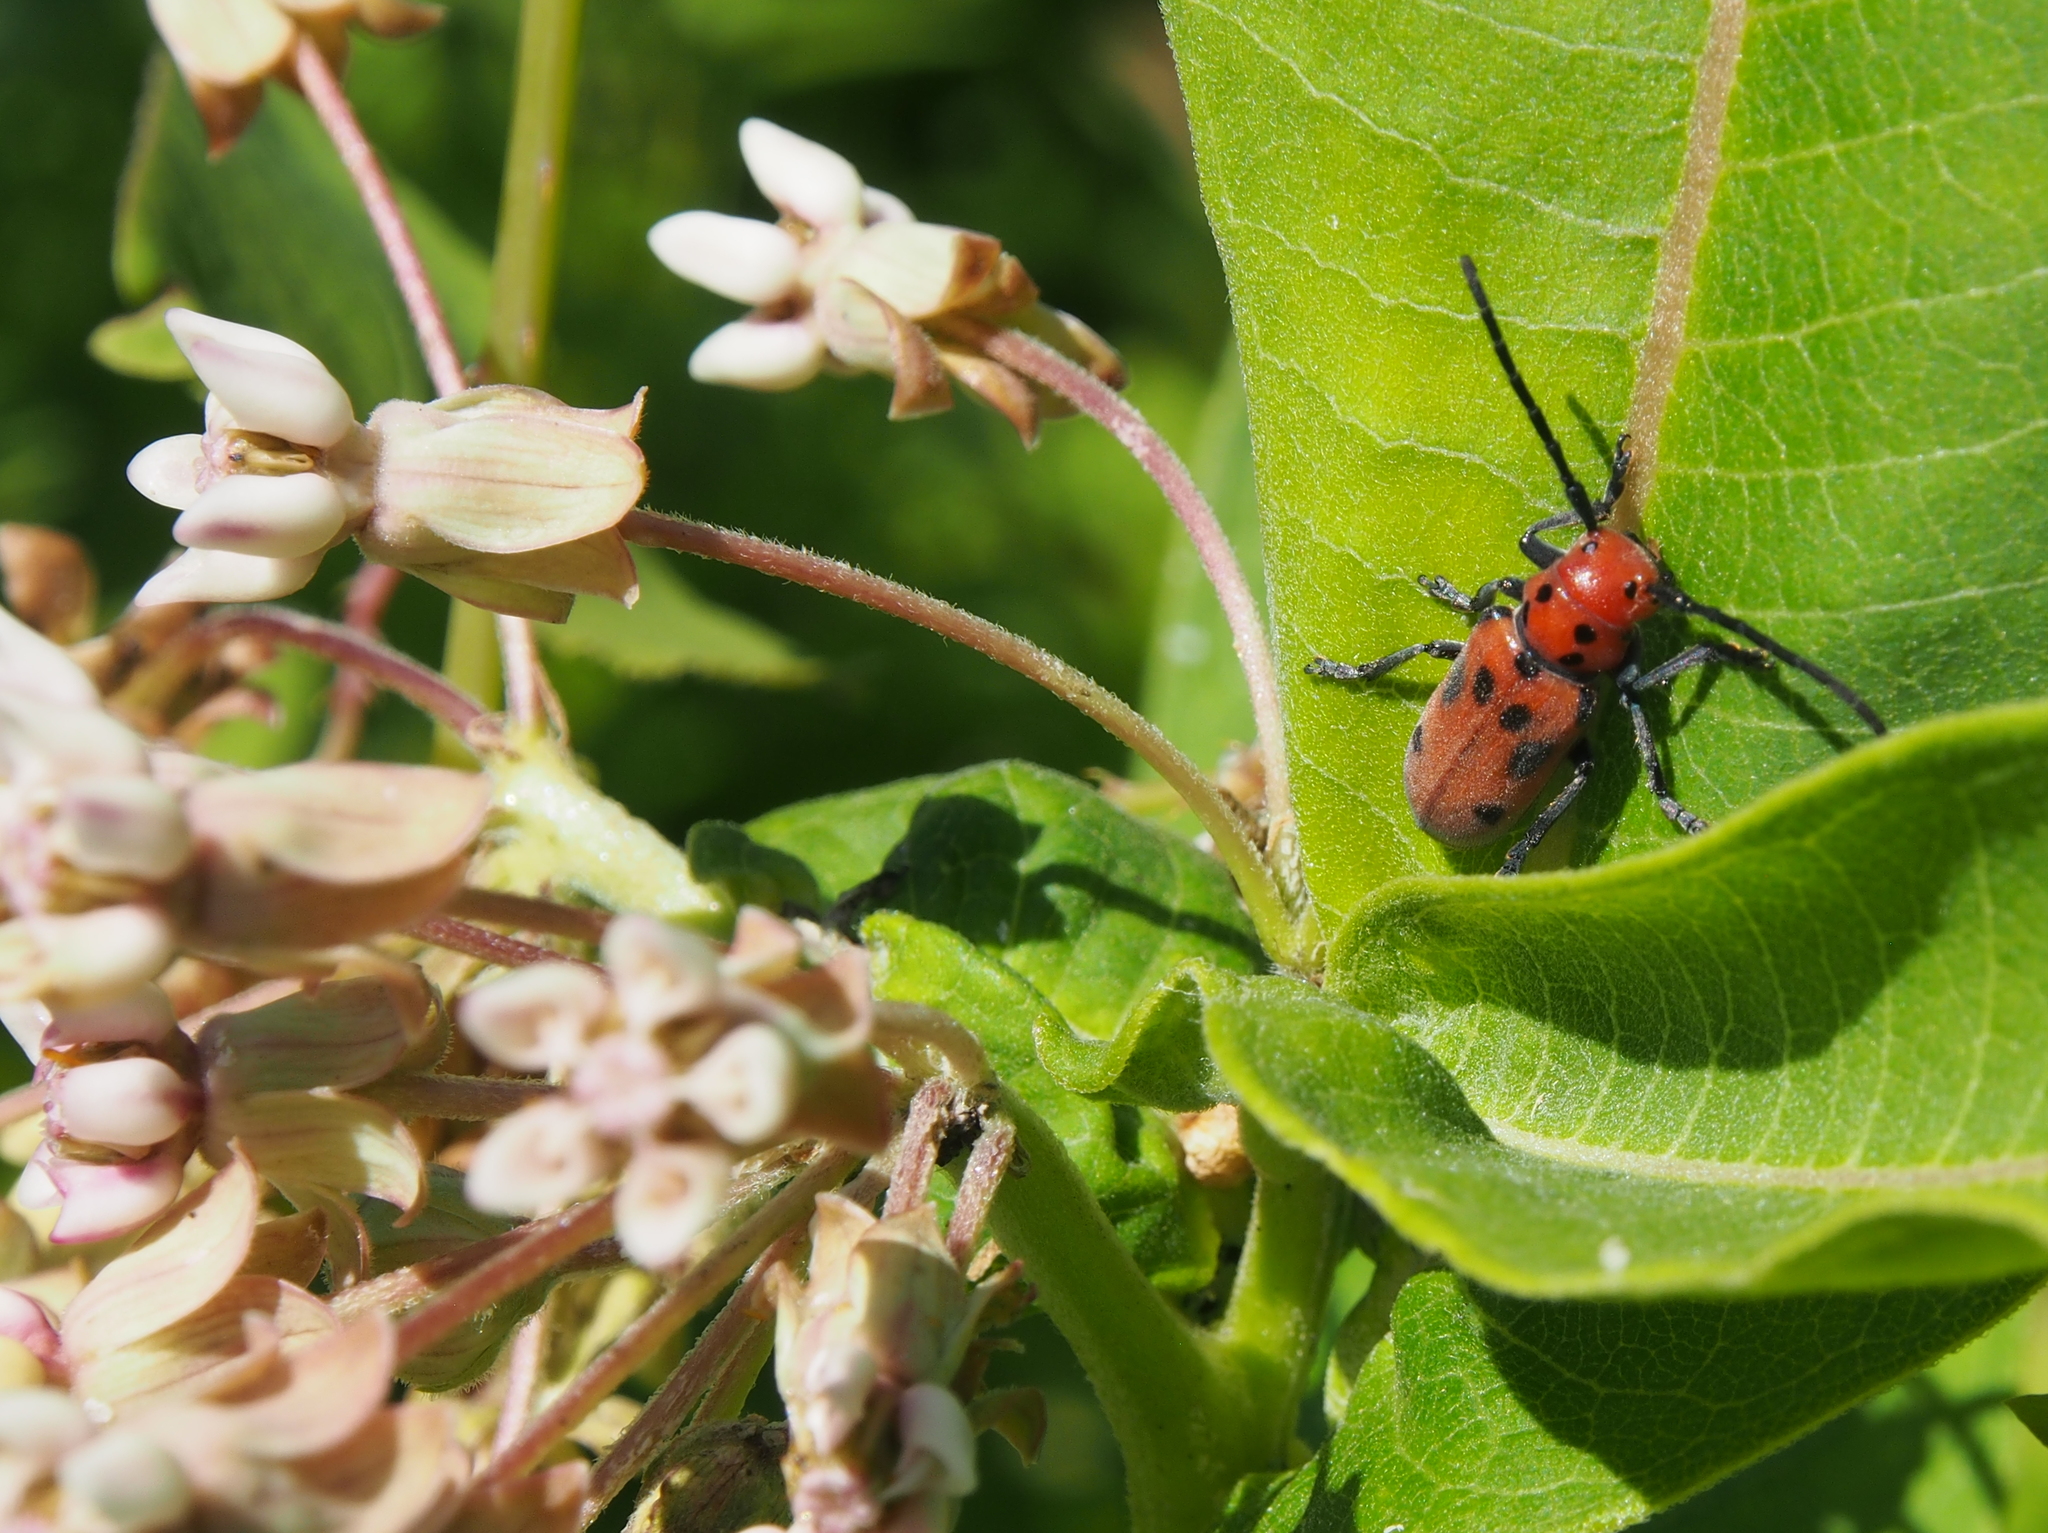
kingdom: Animalia
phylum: Arthropoda
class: Insecta
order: Coleoptera
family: Cerambycidae
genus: Tetraopes
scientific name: Tetraopes tetrophthalmus
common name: Red milkweed beetle
